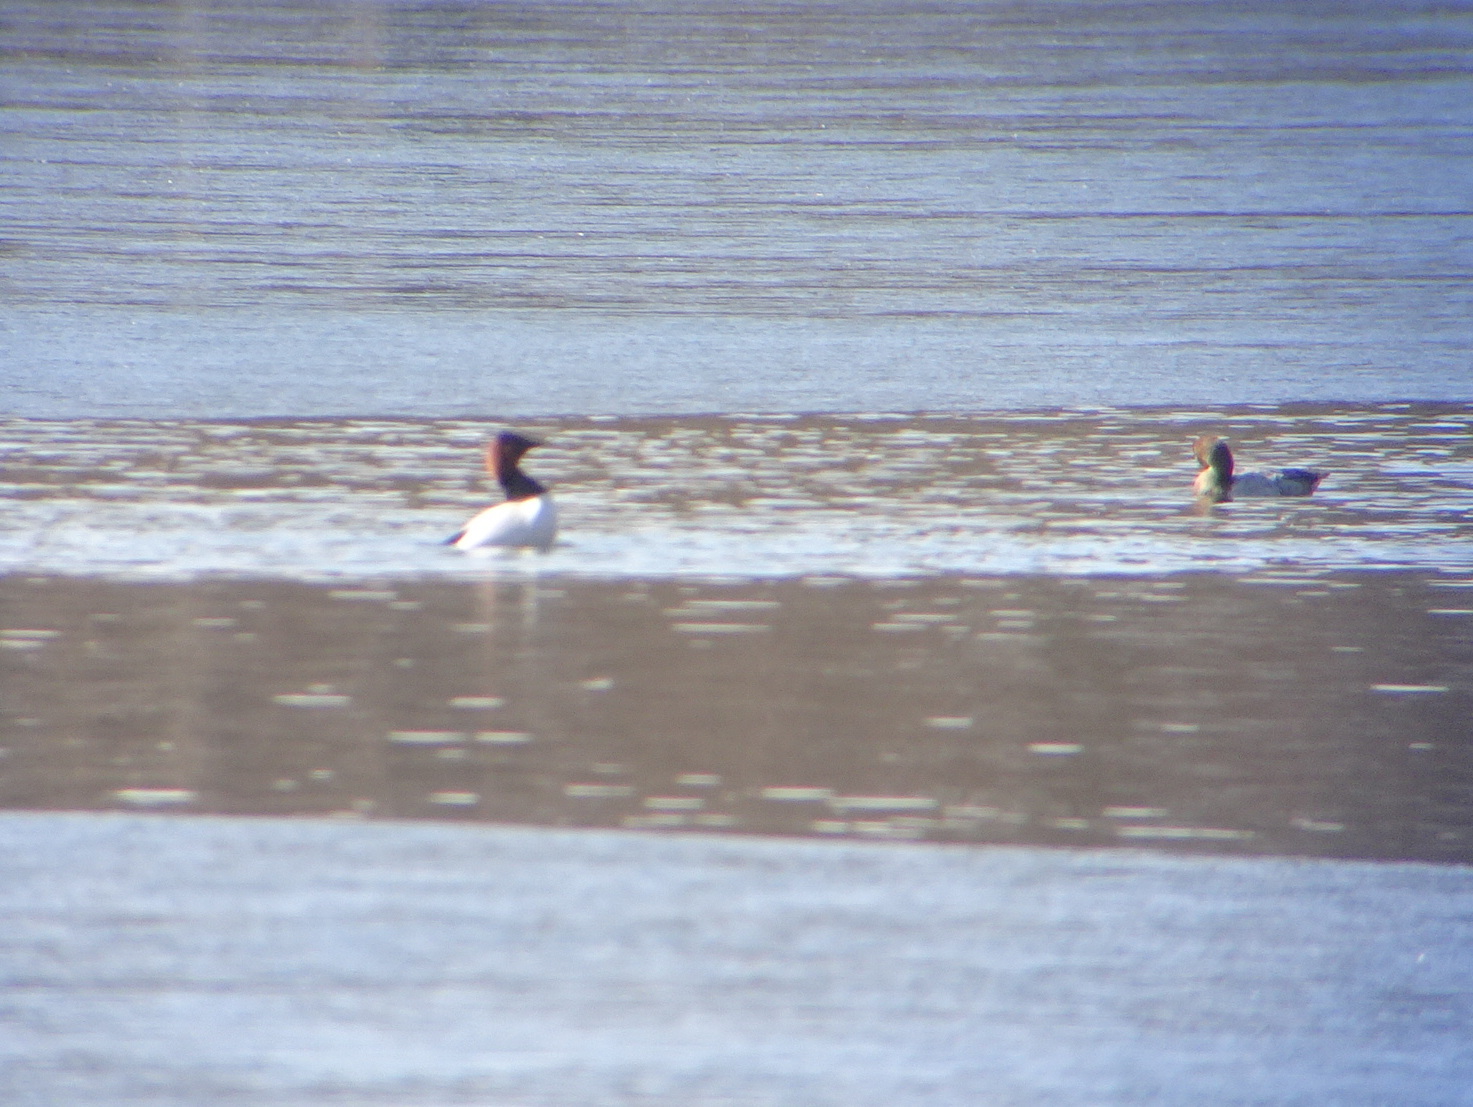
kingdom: Animalia
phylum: Chordata
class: Aves
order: Anseriformes
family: Anatidae
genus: Aythya
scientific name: Aythya valisineria
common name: Canvasback
